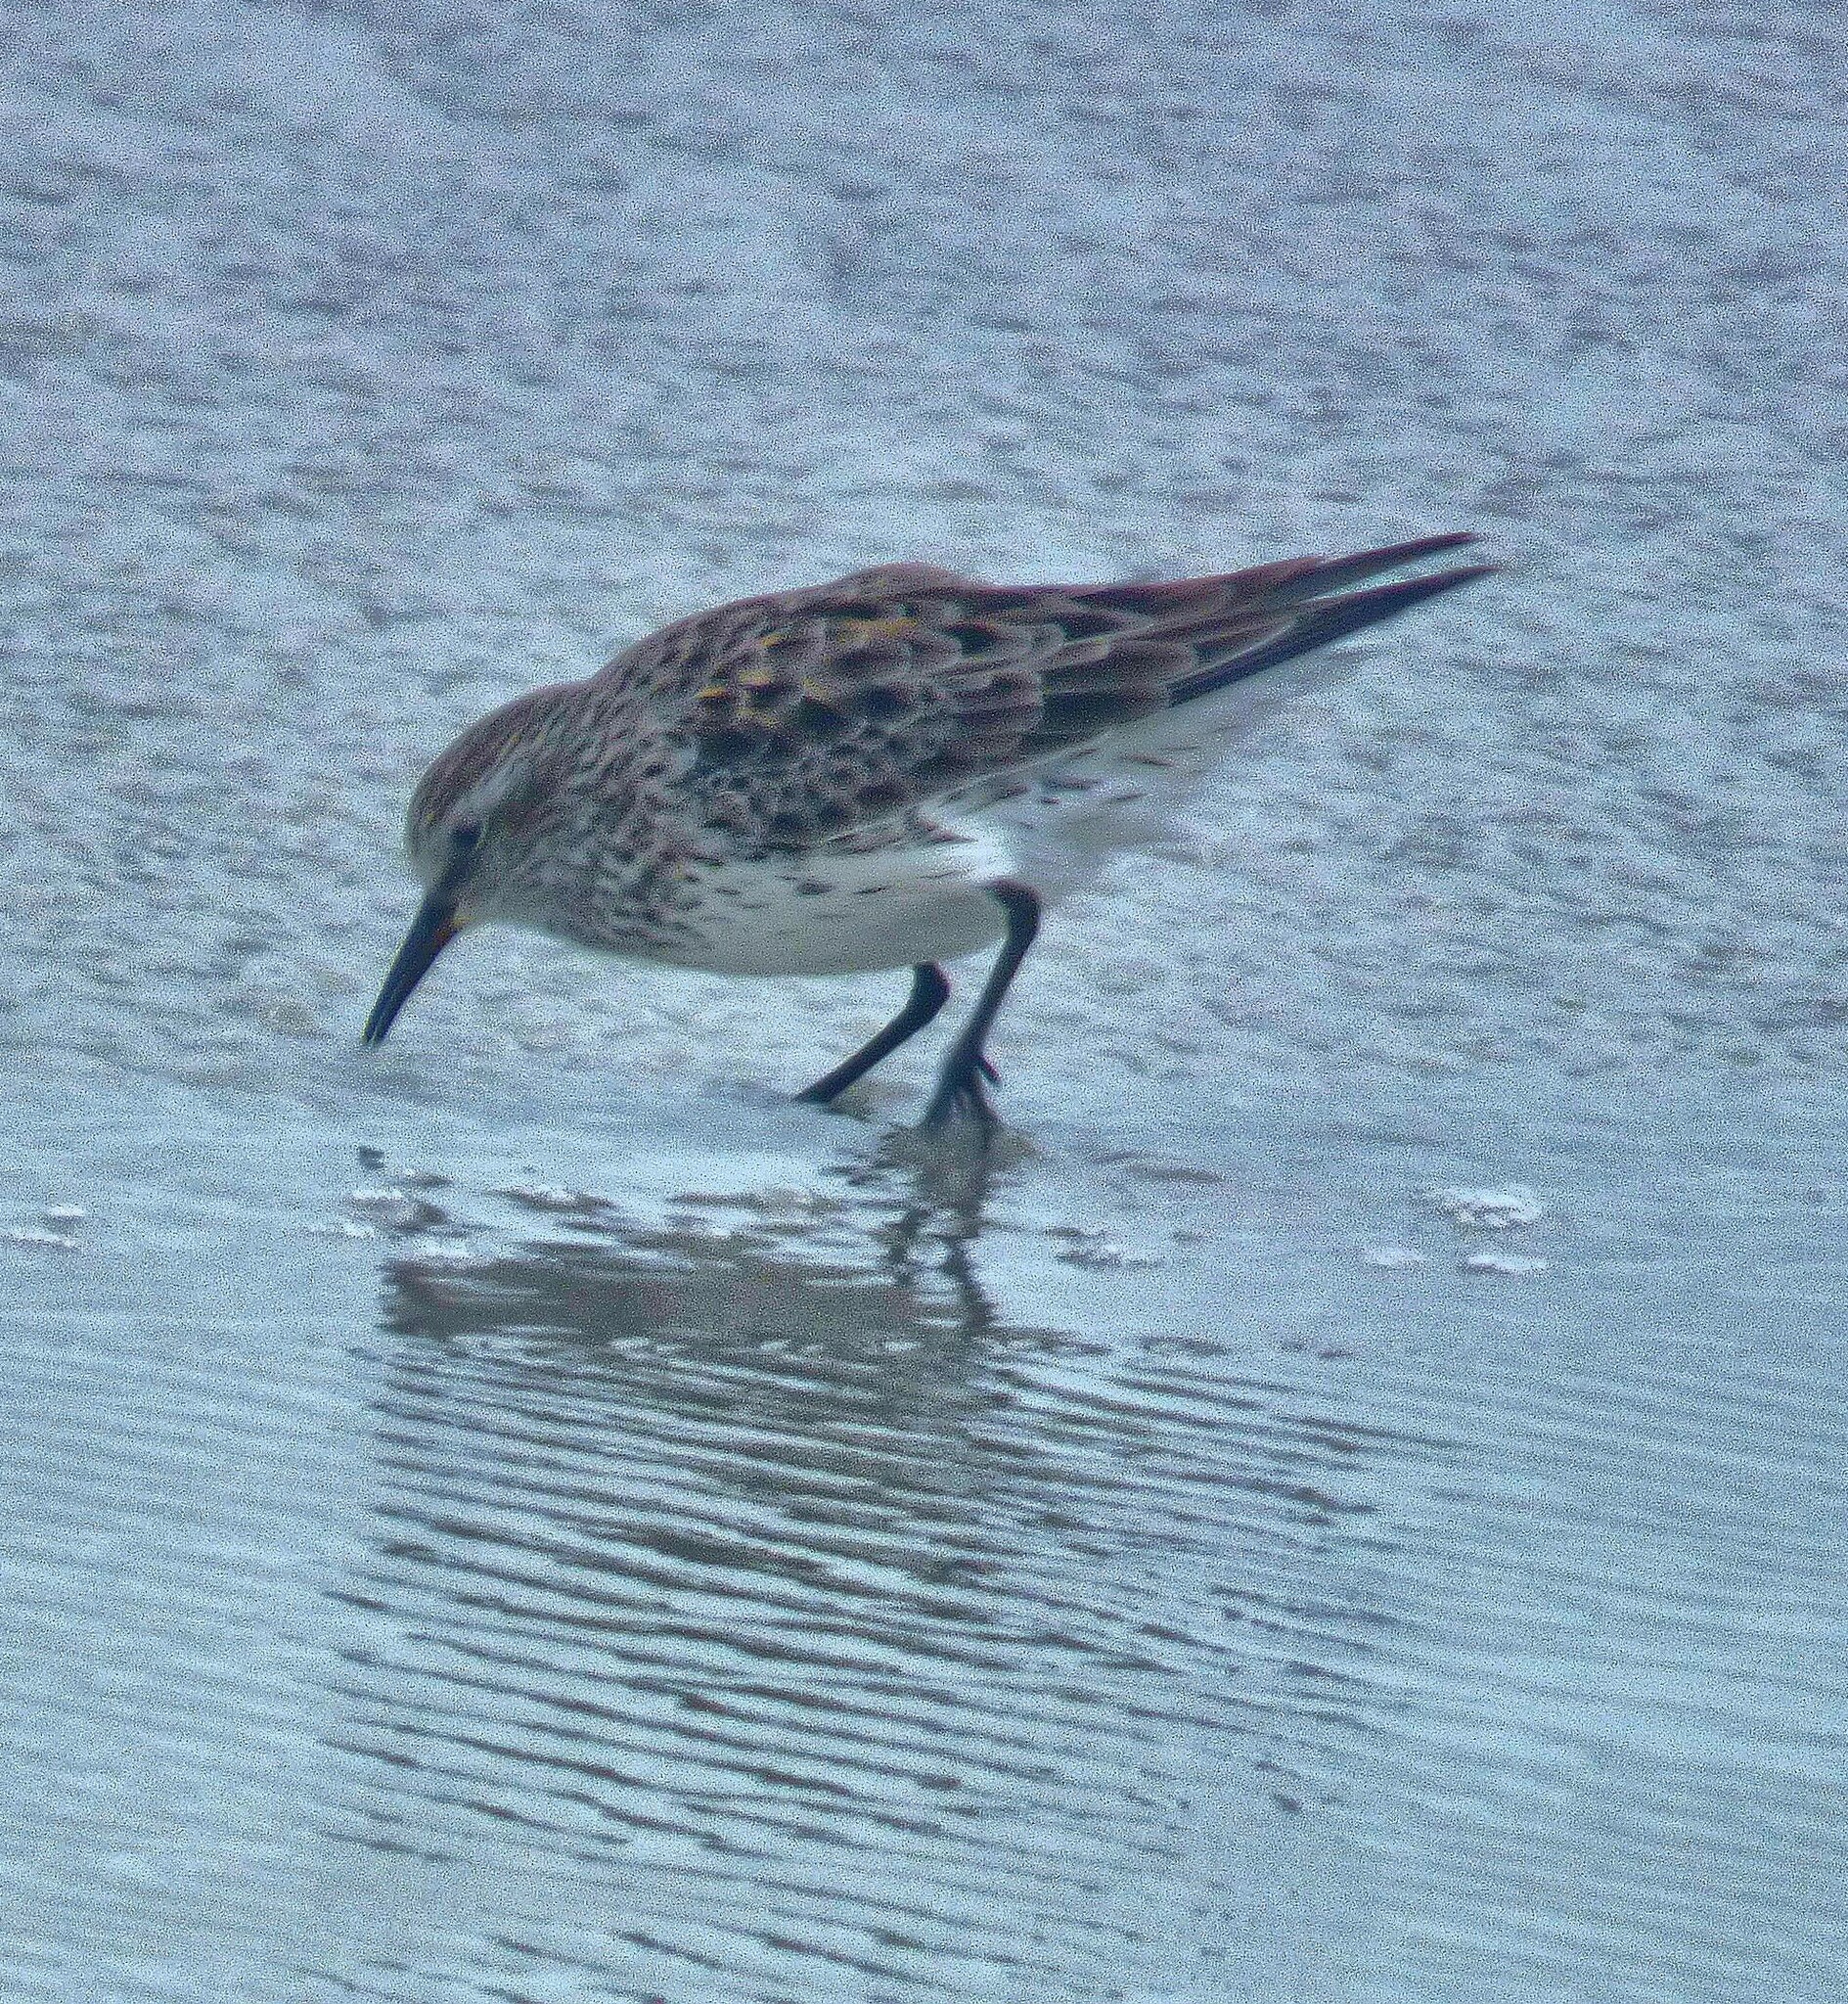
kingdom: Animalia
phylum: Chordata
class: Aves
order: Charadriiformes
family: Scolopacidae
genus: Calidris
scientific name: Calidris fuscicollis
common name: White-rumped sandpiper
